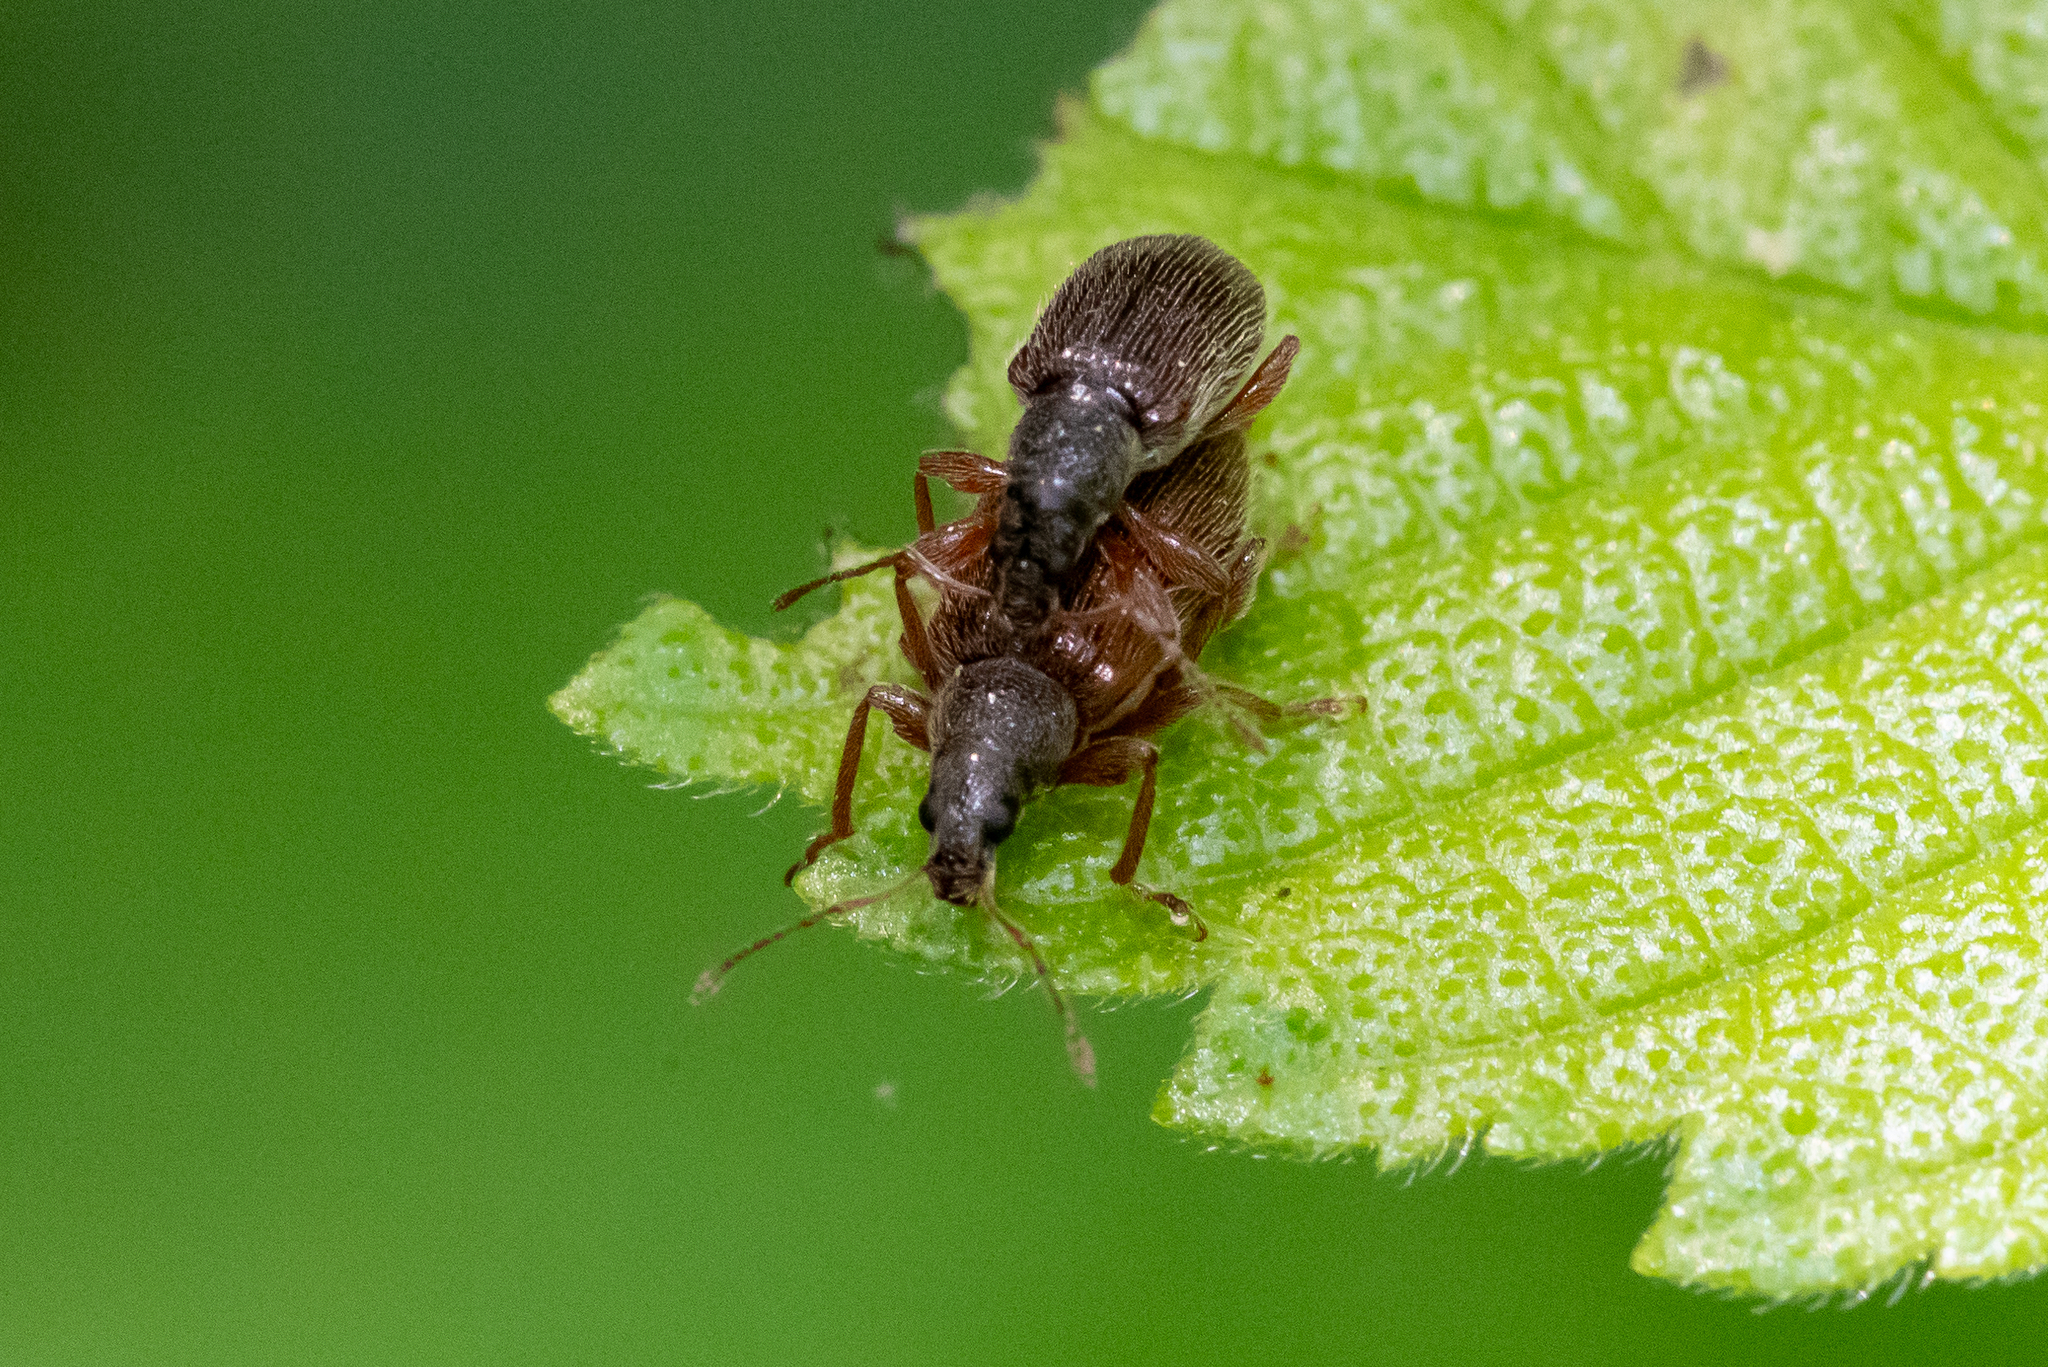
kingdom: Animalia
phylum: Arthropoda
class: Insecta
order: Coleoptera
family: Curculionidae
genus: Phyllobius
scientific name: Phyllobius oblongus
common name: Brown leaf weevil
